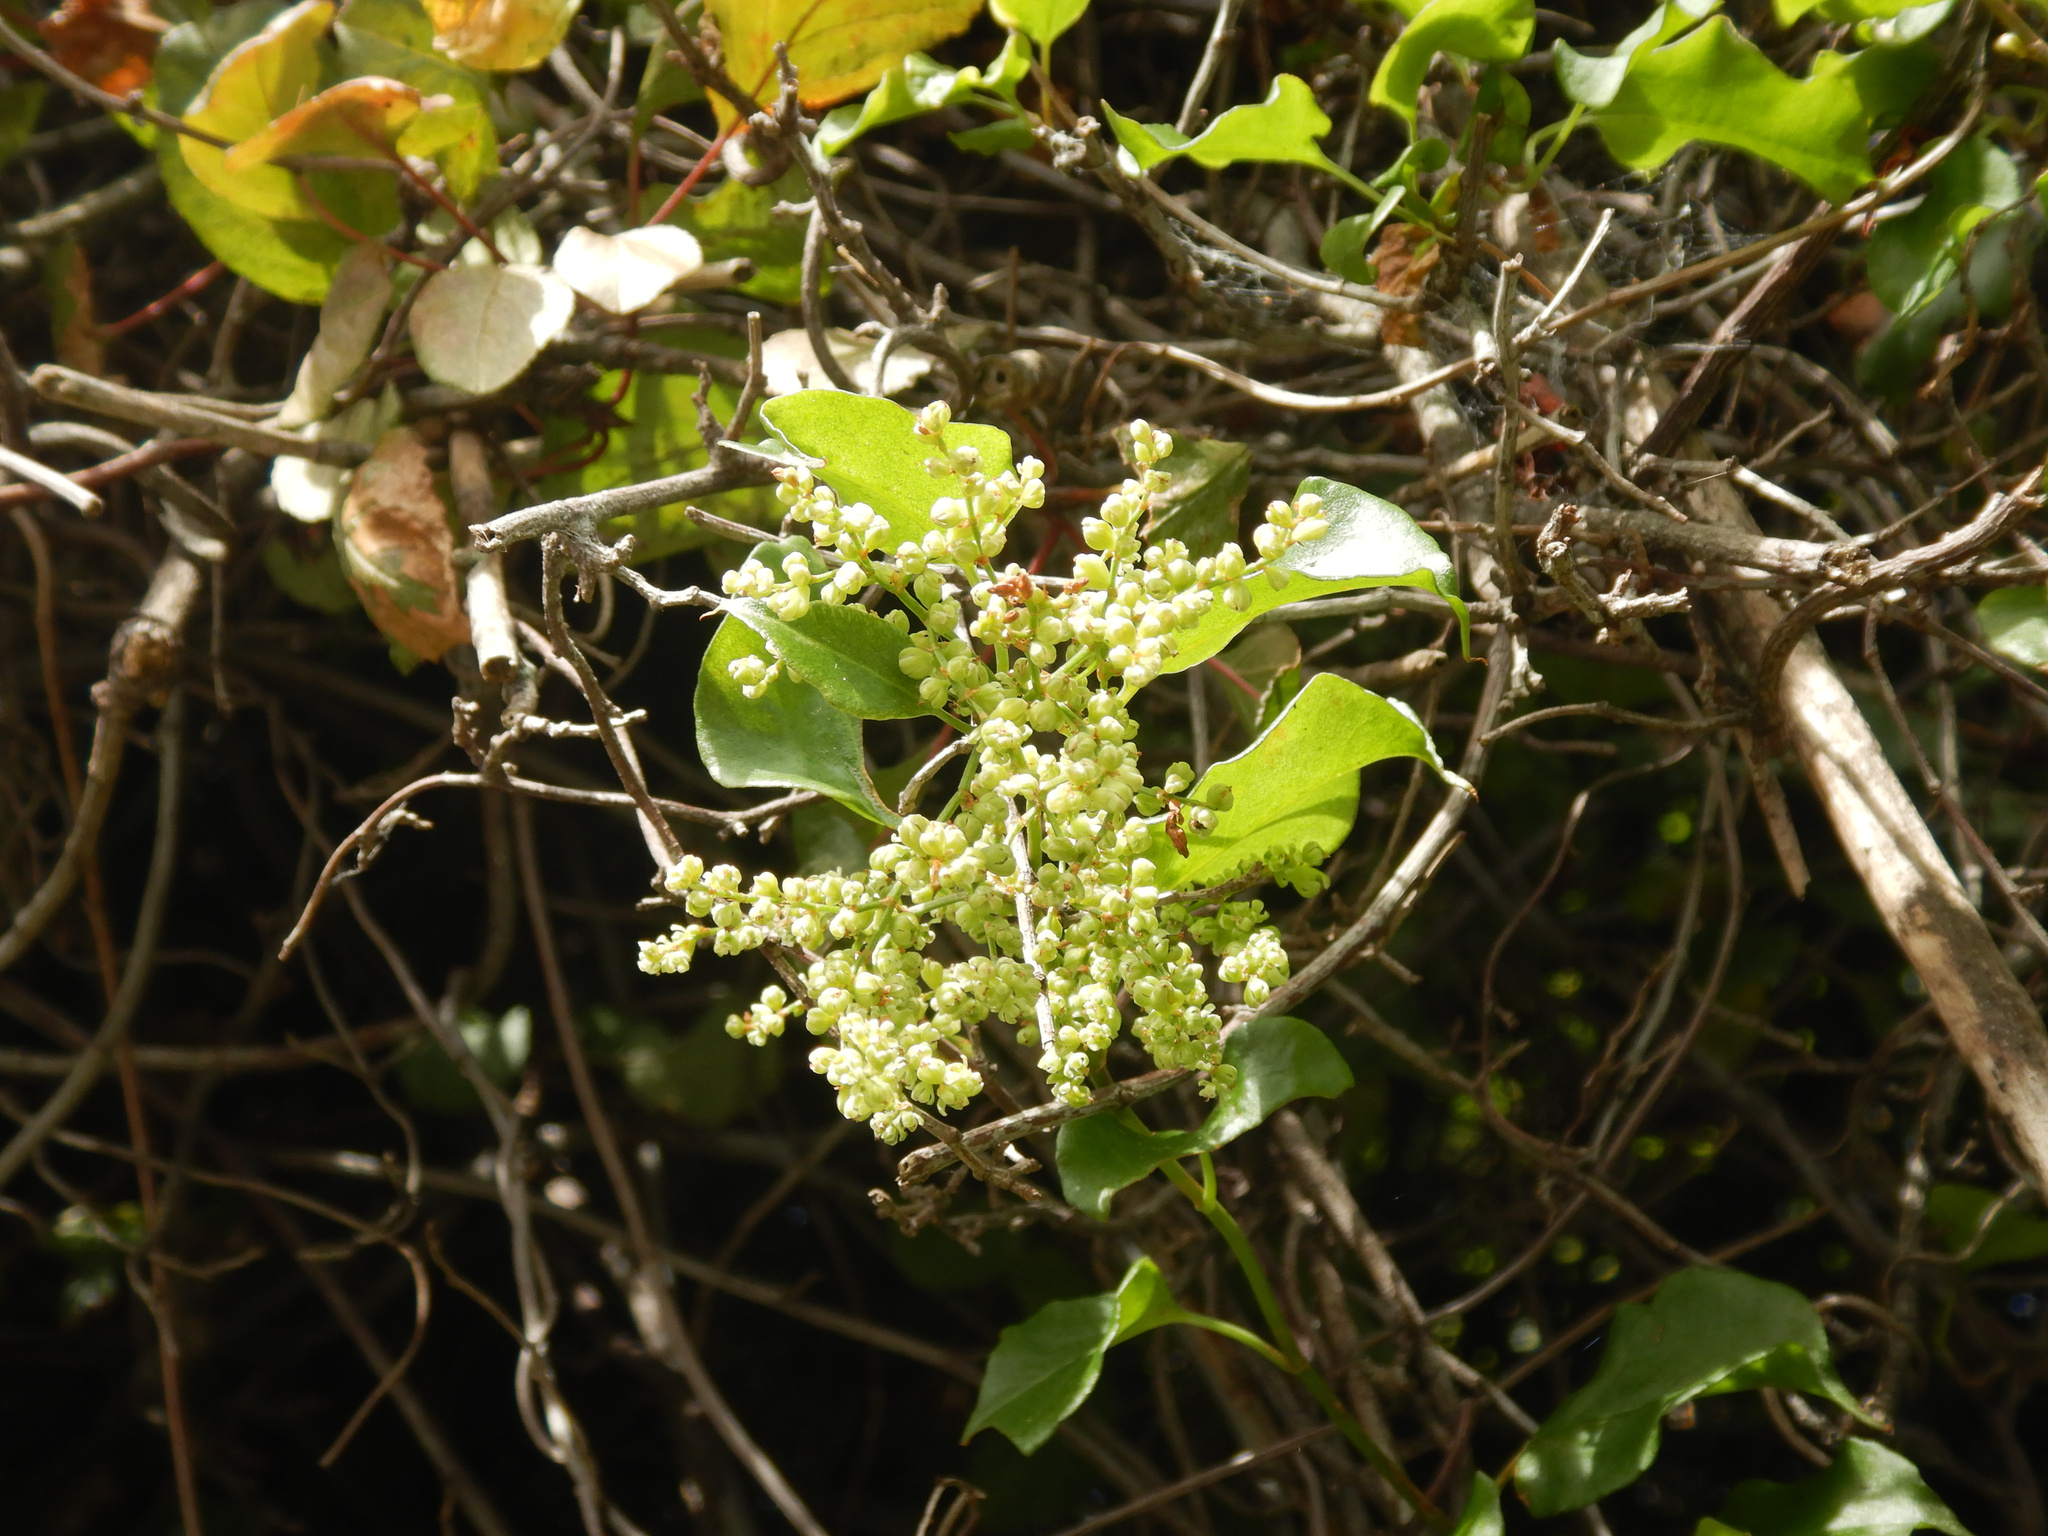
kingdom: Plantae
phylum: Tracheophyta
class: Magnoliopsida
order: Caryophyllales
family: Polygonaceae
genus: Muehlenbeckia
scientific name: Muehlenbeckia australis
